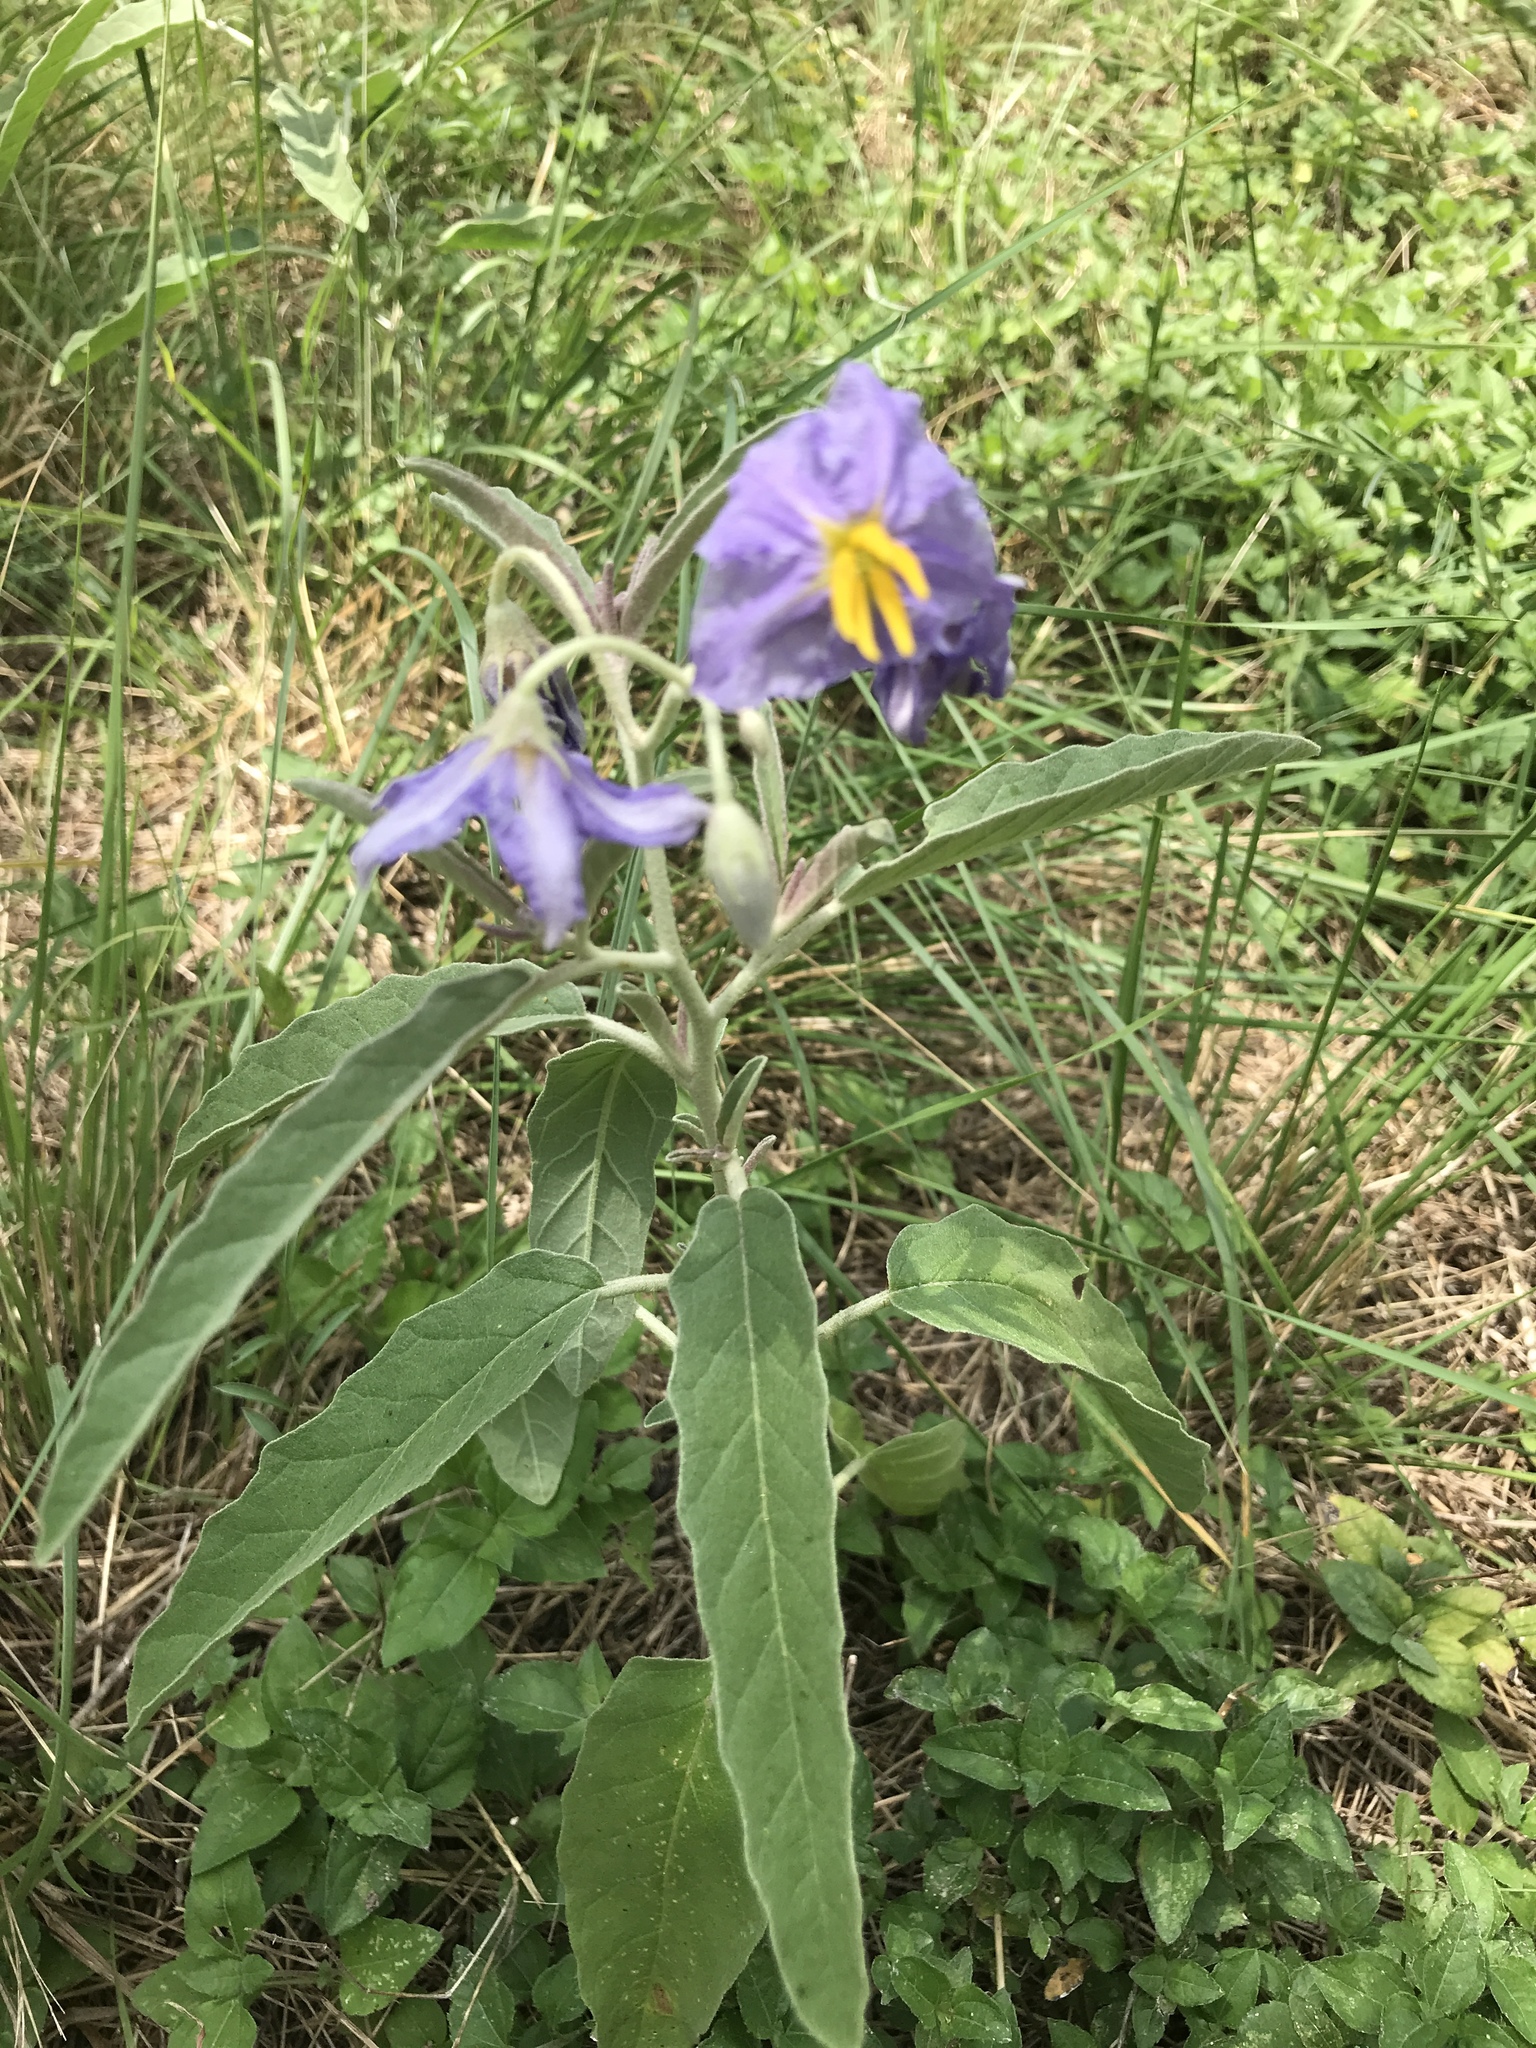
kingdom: Plantae
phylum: Tracheophyta
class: Magnoliopsida
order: Solanales
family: Solanaceae
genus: Solanum
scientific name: Solanum elaeagnifolium
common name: Silverleaf nightshade
